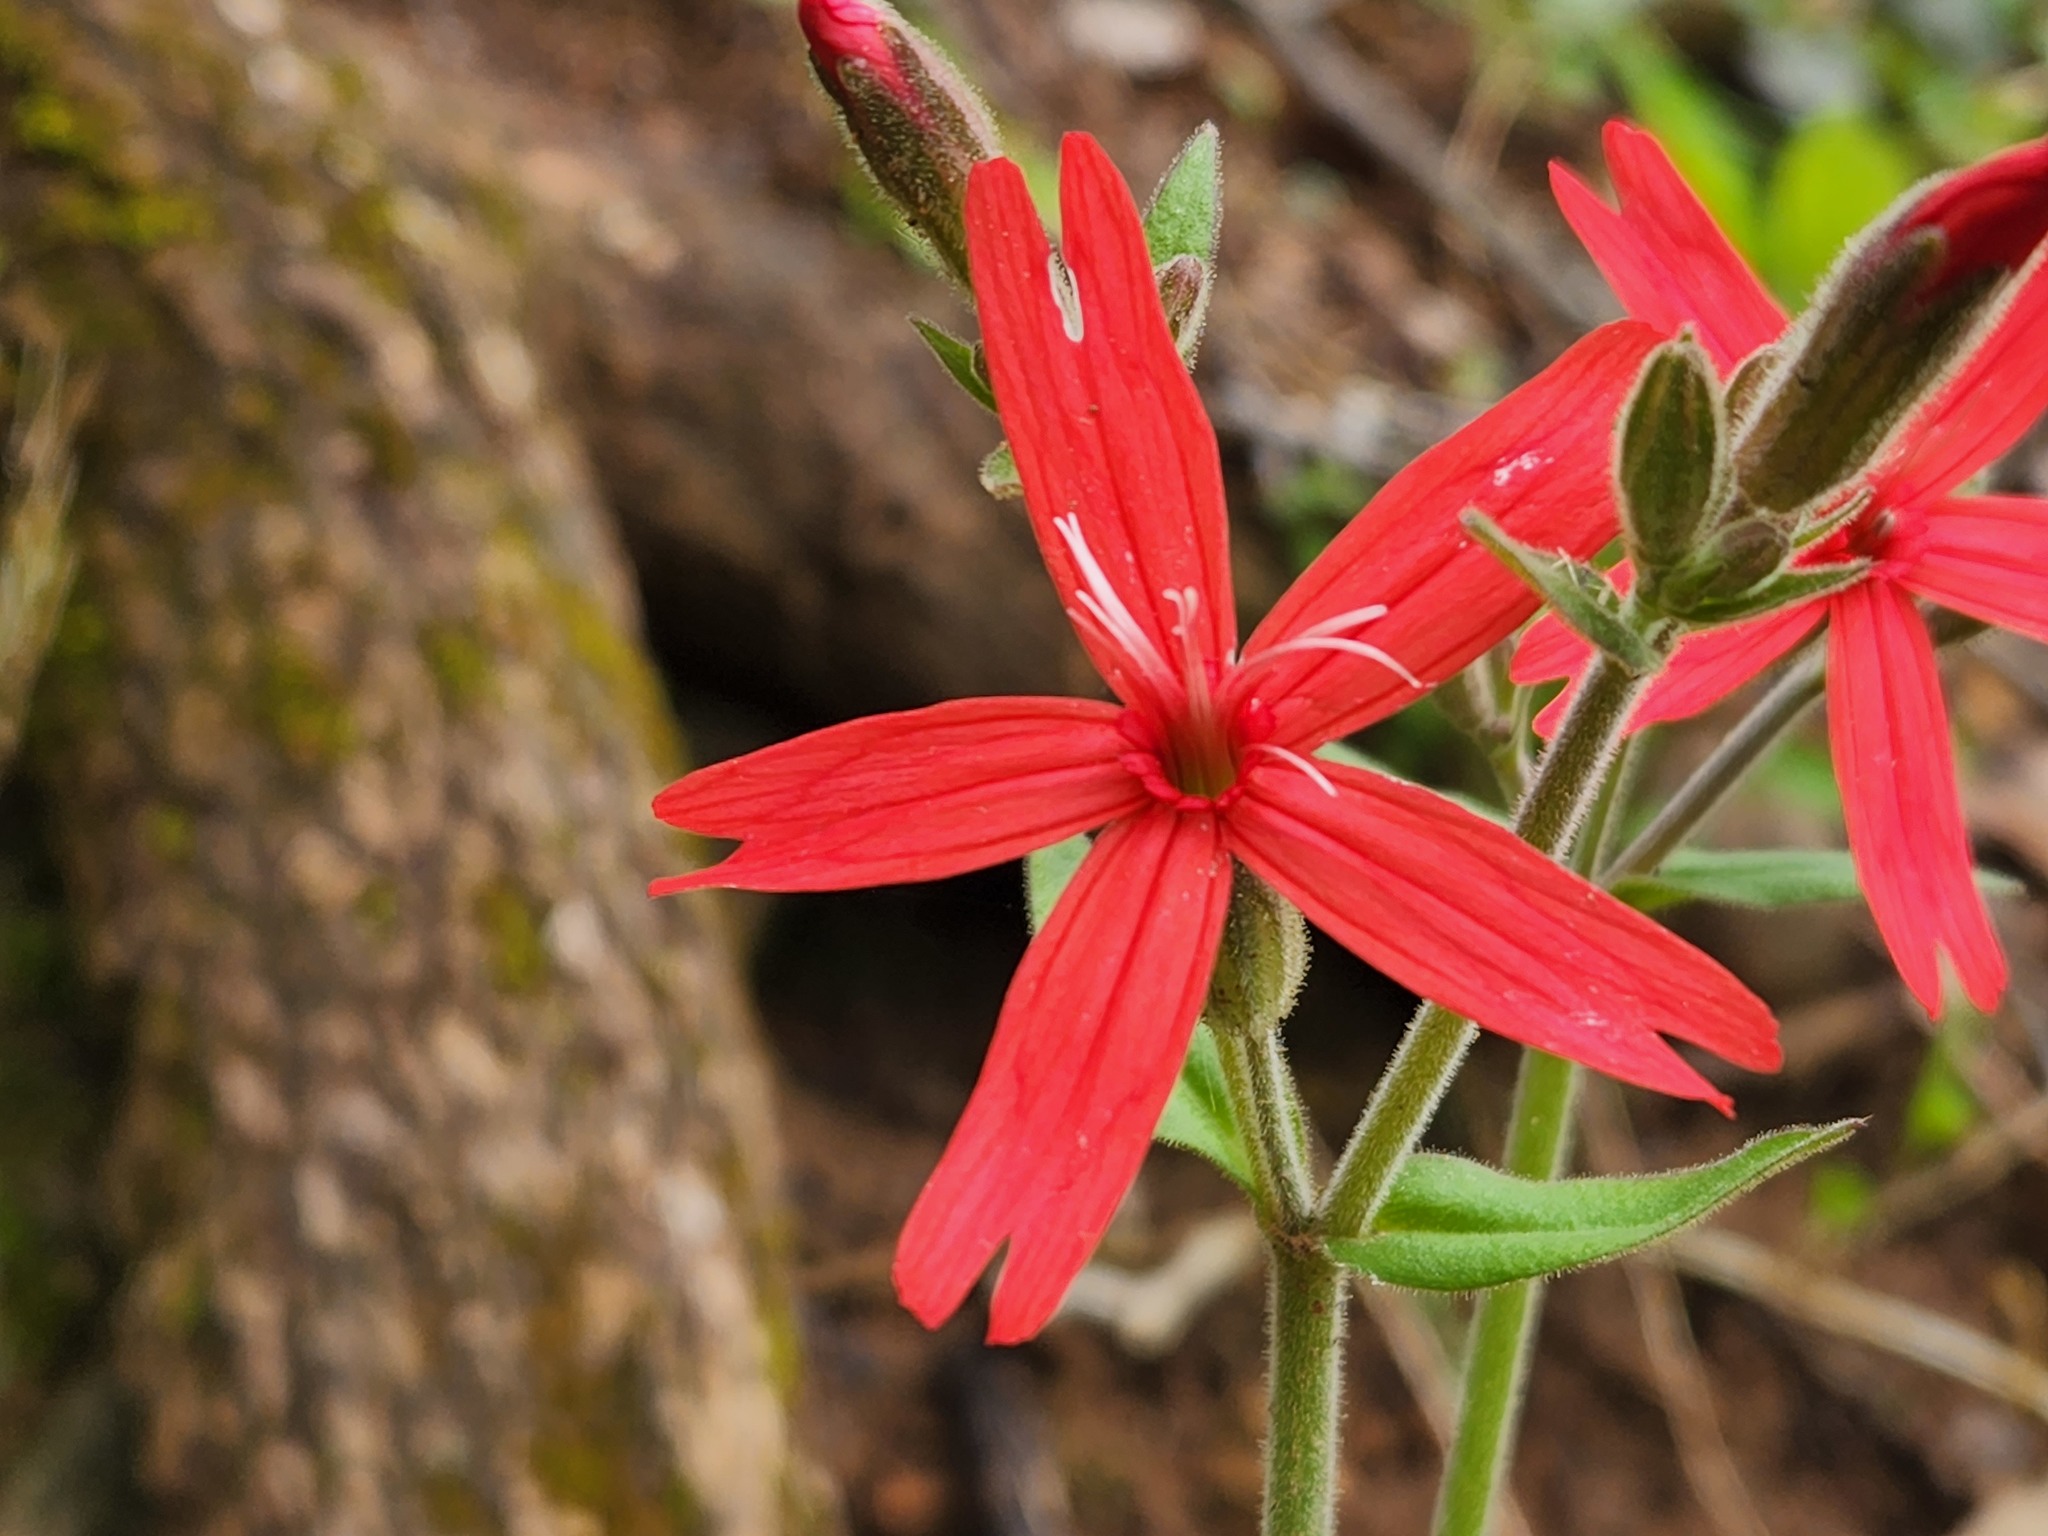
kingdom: Plantae
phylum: Tracheophyta
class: Magnoliopsida
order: Caryophyllales
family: Caryophyllaceae
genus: Silene
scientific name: Silene virginica
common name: Fire-pink
